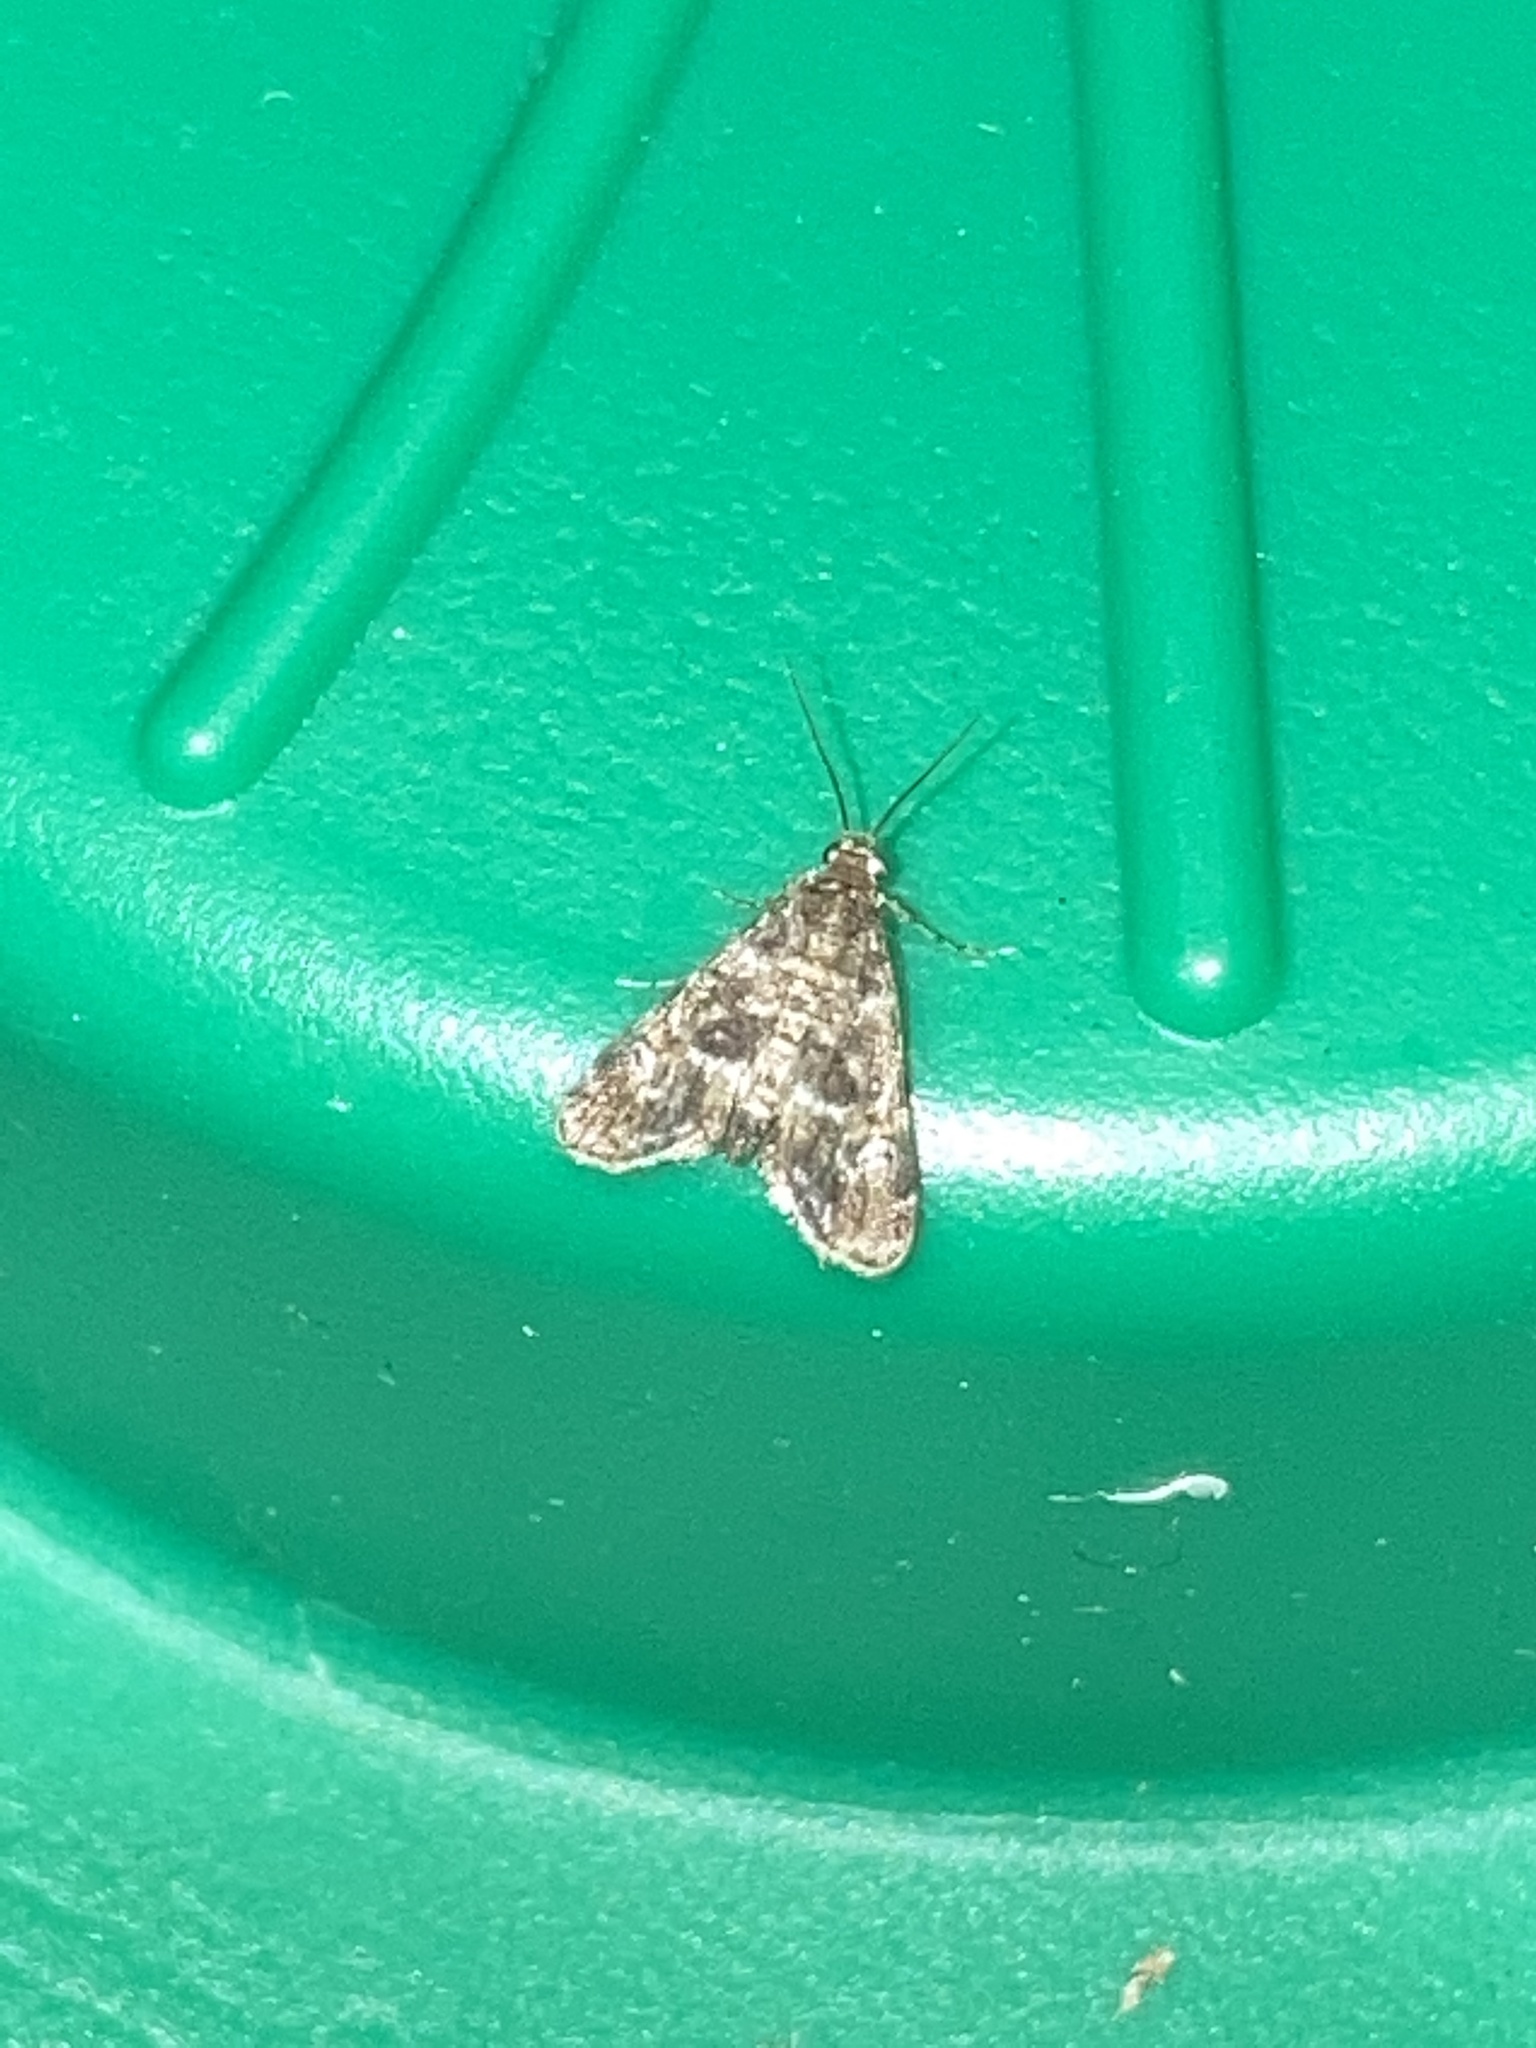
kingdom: Animalia
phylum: Arthropoda
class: Insecta
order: Lepidoptera
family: Crambidae
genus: Elophila
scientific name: Elophila obliteralis
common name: Waterlily leafcutter moth
